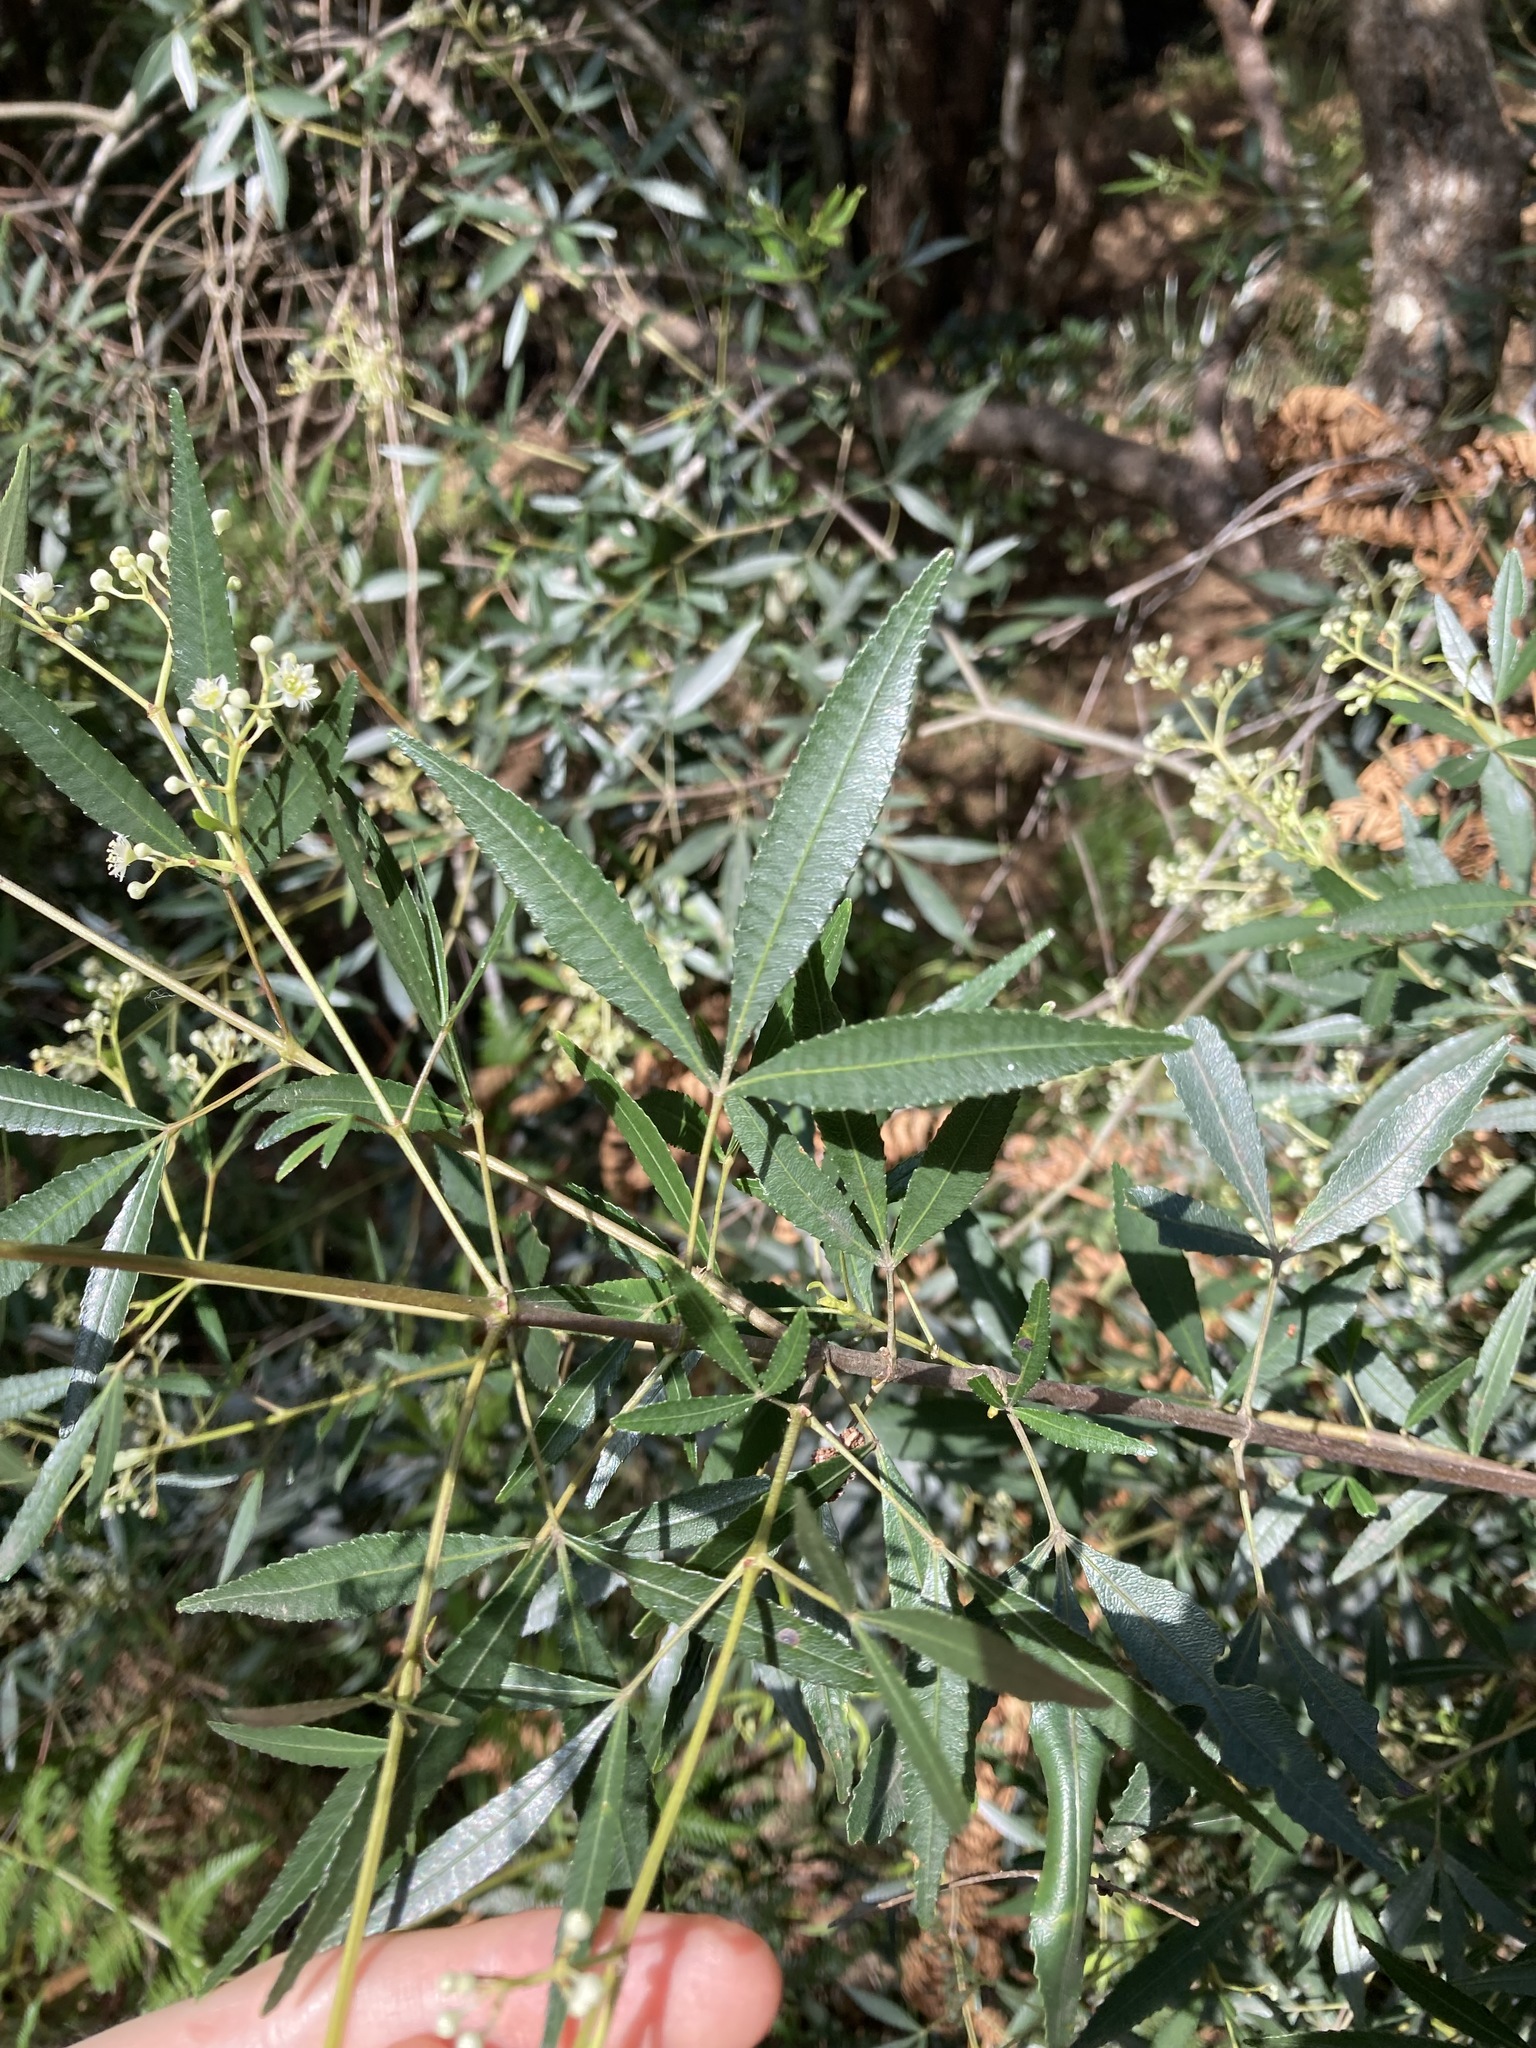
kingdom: Plantae
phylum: Tracheophyta
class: Magnoliopsida
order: Oxalidales
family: Cunoniaceae
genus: Ceratopetalum
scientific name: Ceratopetalum gummiferum
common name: Christmasbush
